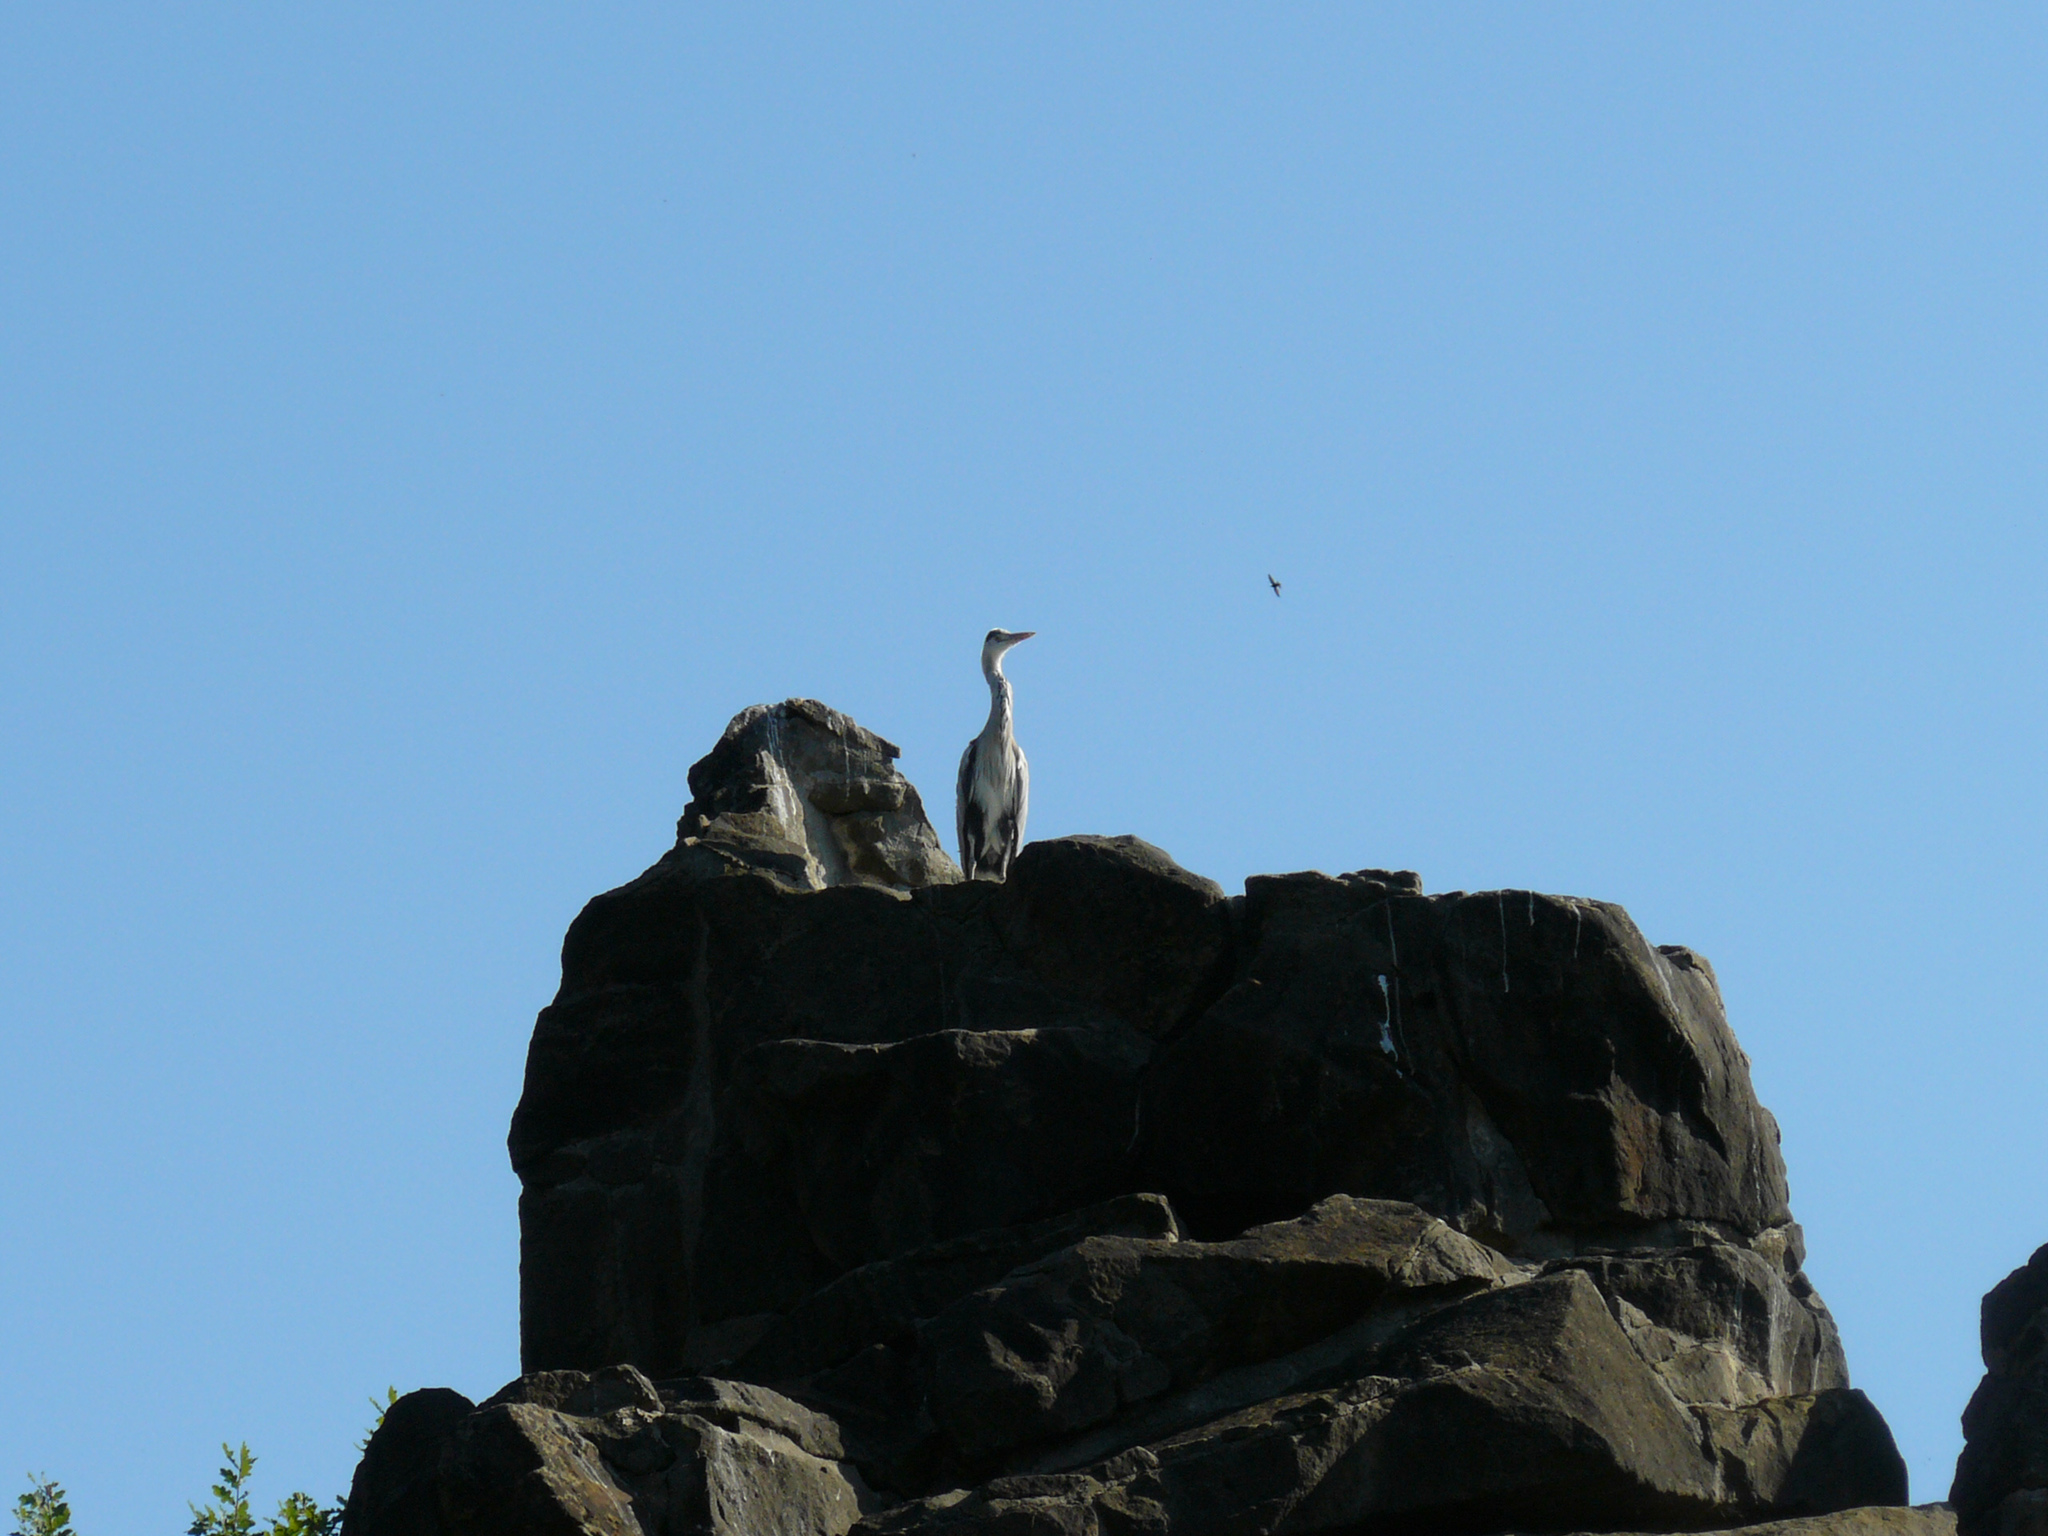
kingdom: Animalia
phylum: Chordata
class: Aves
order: Pelecaniformes
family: Ardeidae
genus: Ardea
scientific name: Ardea cinerea
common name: Grey heron
